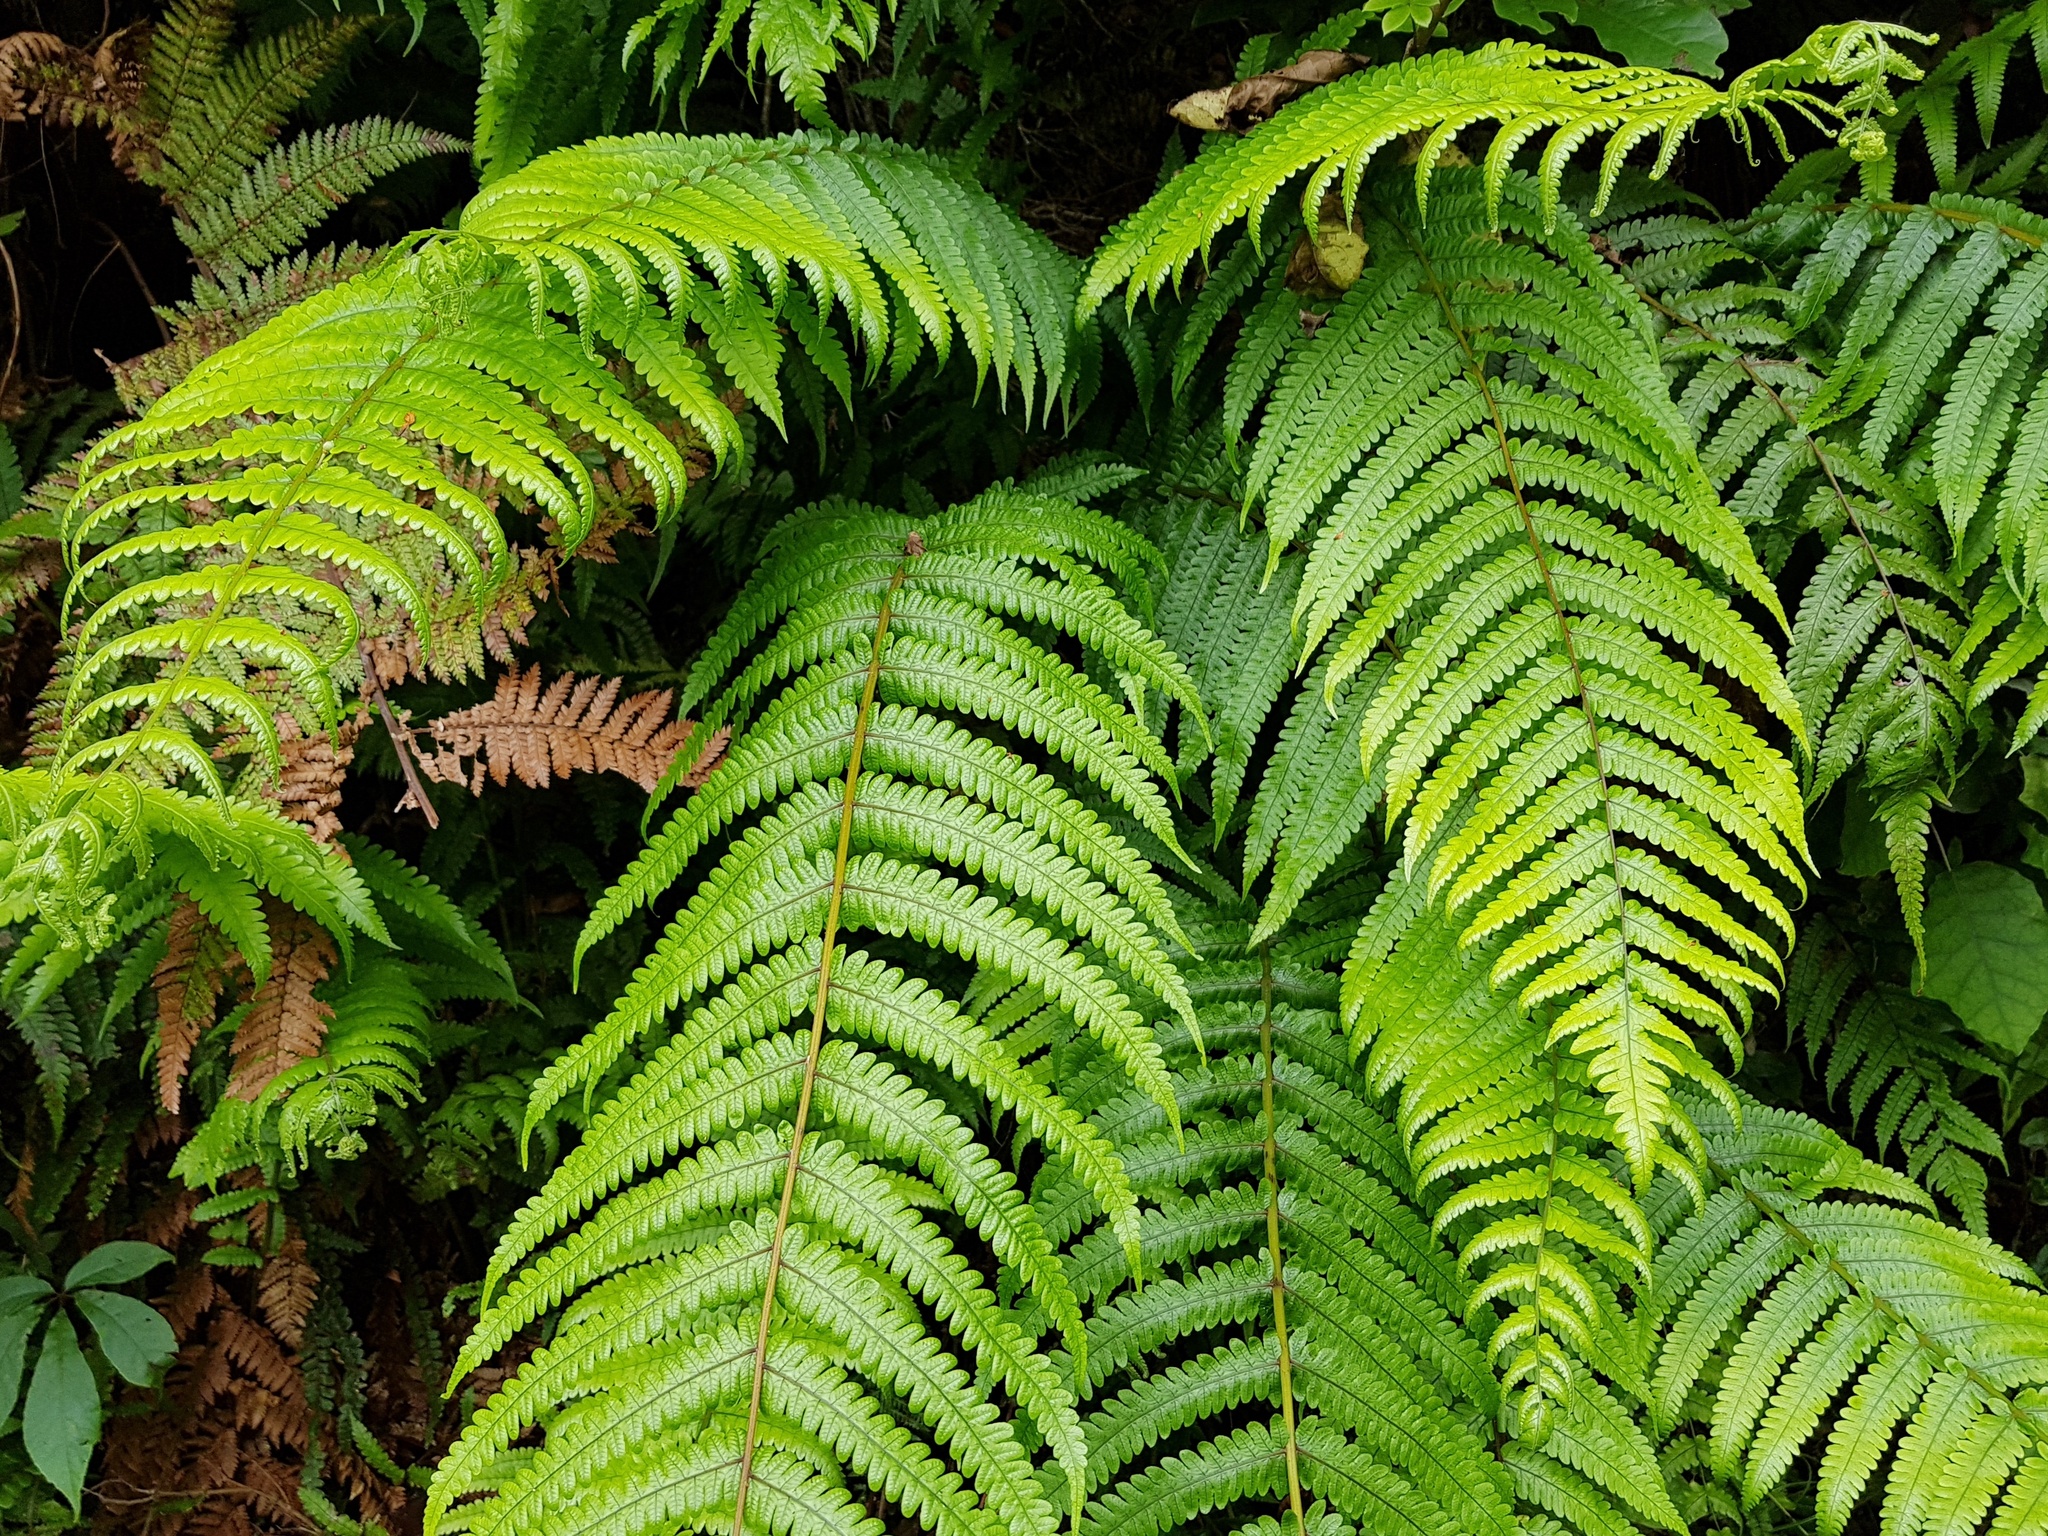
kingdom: Plantae
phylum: Tracheophyta
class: Polypodiopsida
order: Polypodiales
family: Thelypteridaceae
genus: Pakau
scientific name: Pakau pennigera
